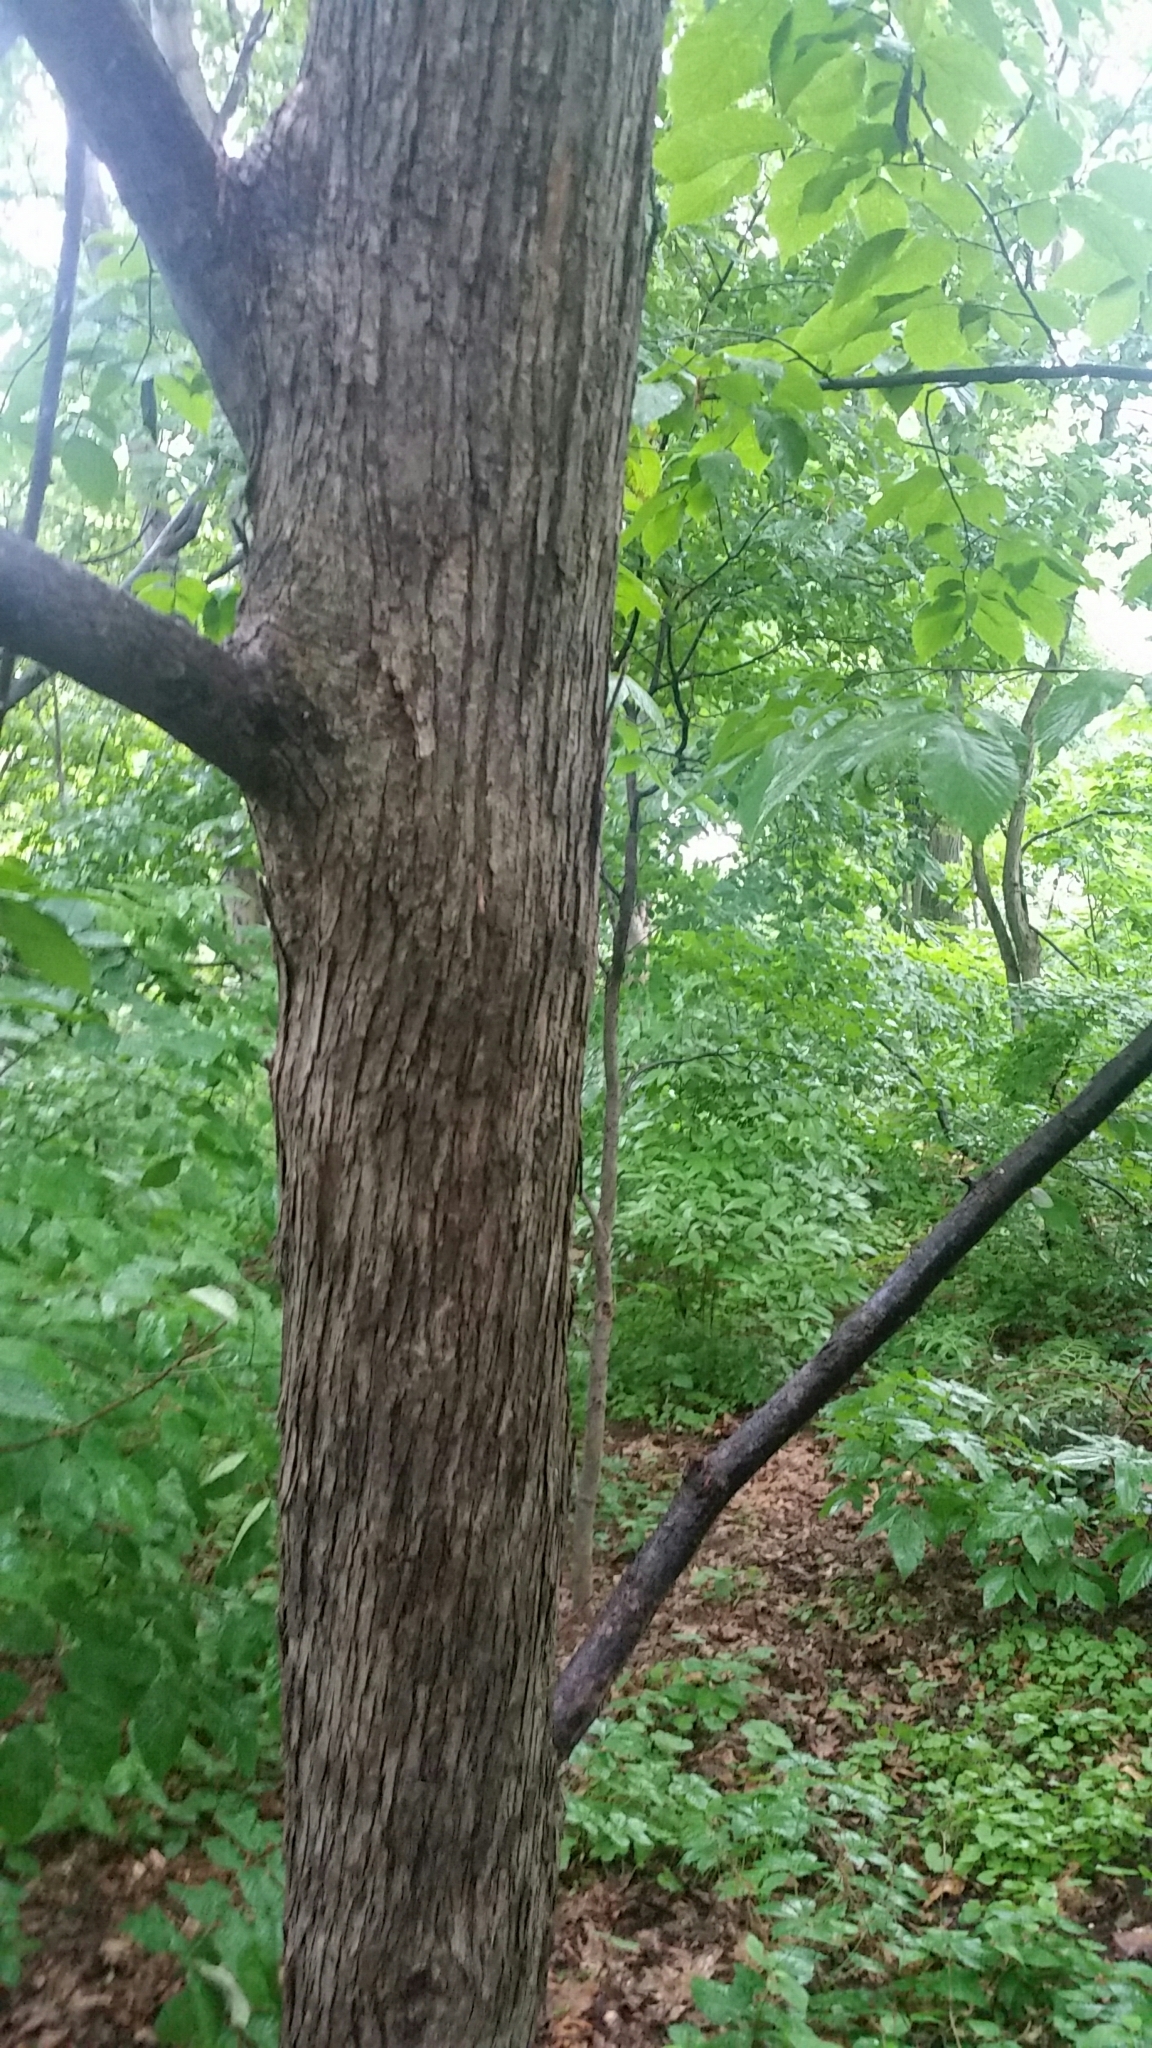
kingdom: Plantae
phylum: Tracheophyta
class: Magnoliopsida
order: Fagales
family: Betulaceae
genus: Ostrya
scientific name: Ostrya virginiana
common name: Ironwood
